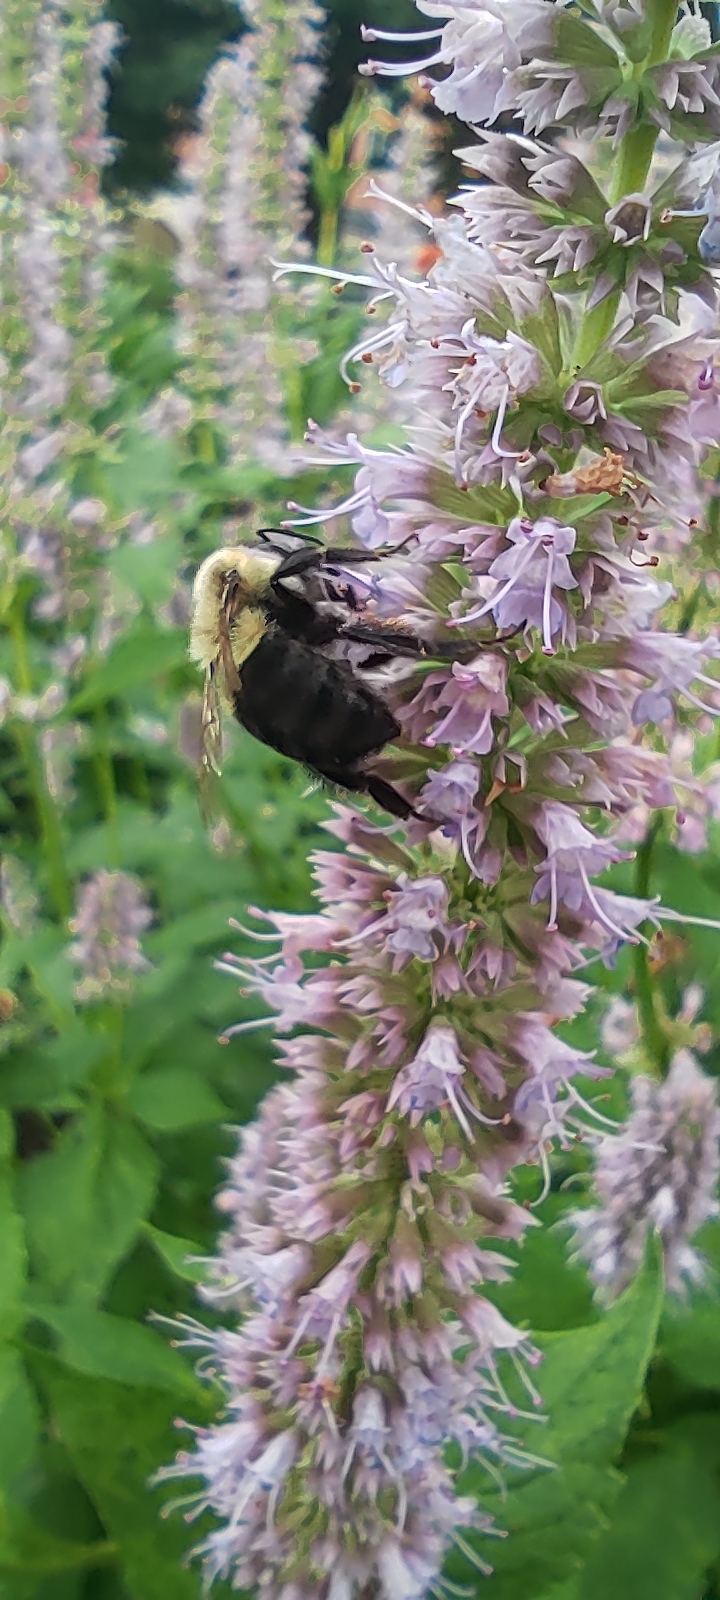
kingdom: Animalia
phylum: Arthropoda
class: Insecta
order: Hymenoptera
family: Apidae
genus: Bombus
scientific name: Bombus impatiens
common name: Common eastern bumble bee
